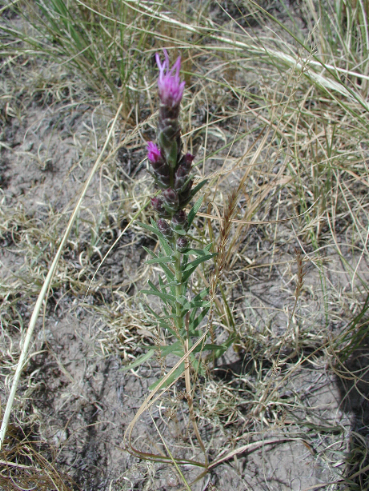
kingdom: Plantae
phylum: Tracheophyta
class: Magnoliopsida
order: Asterales
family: Asteraceae
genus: Liatris
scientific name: Liatris punctata
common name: Dotted gayfeather
